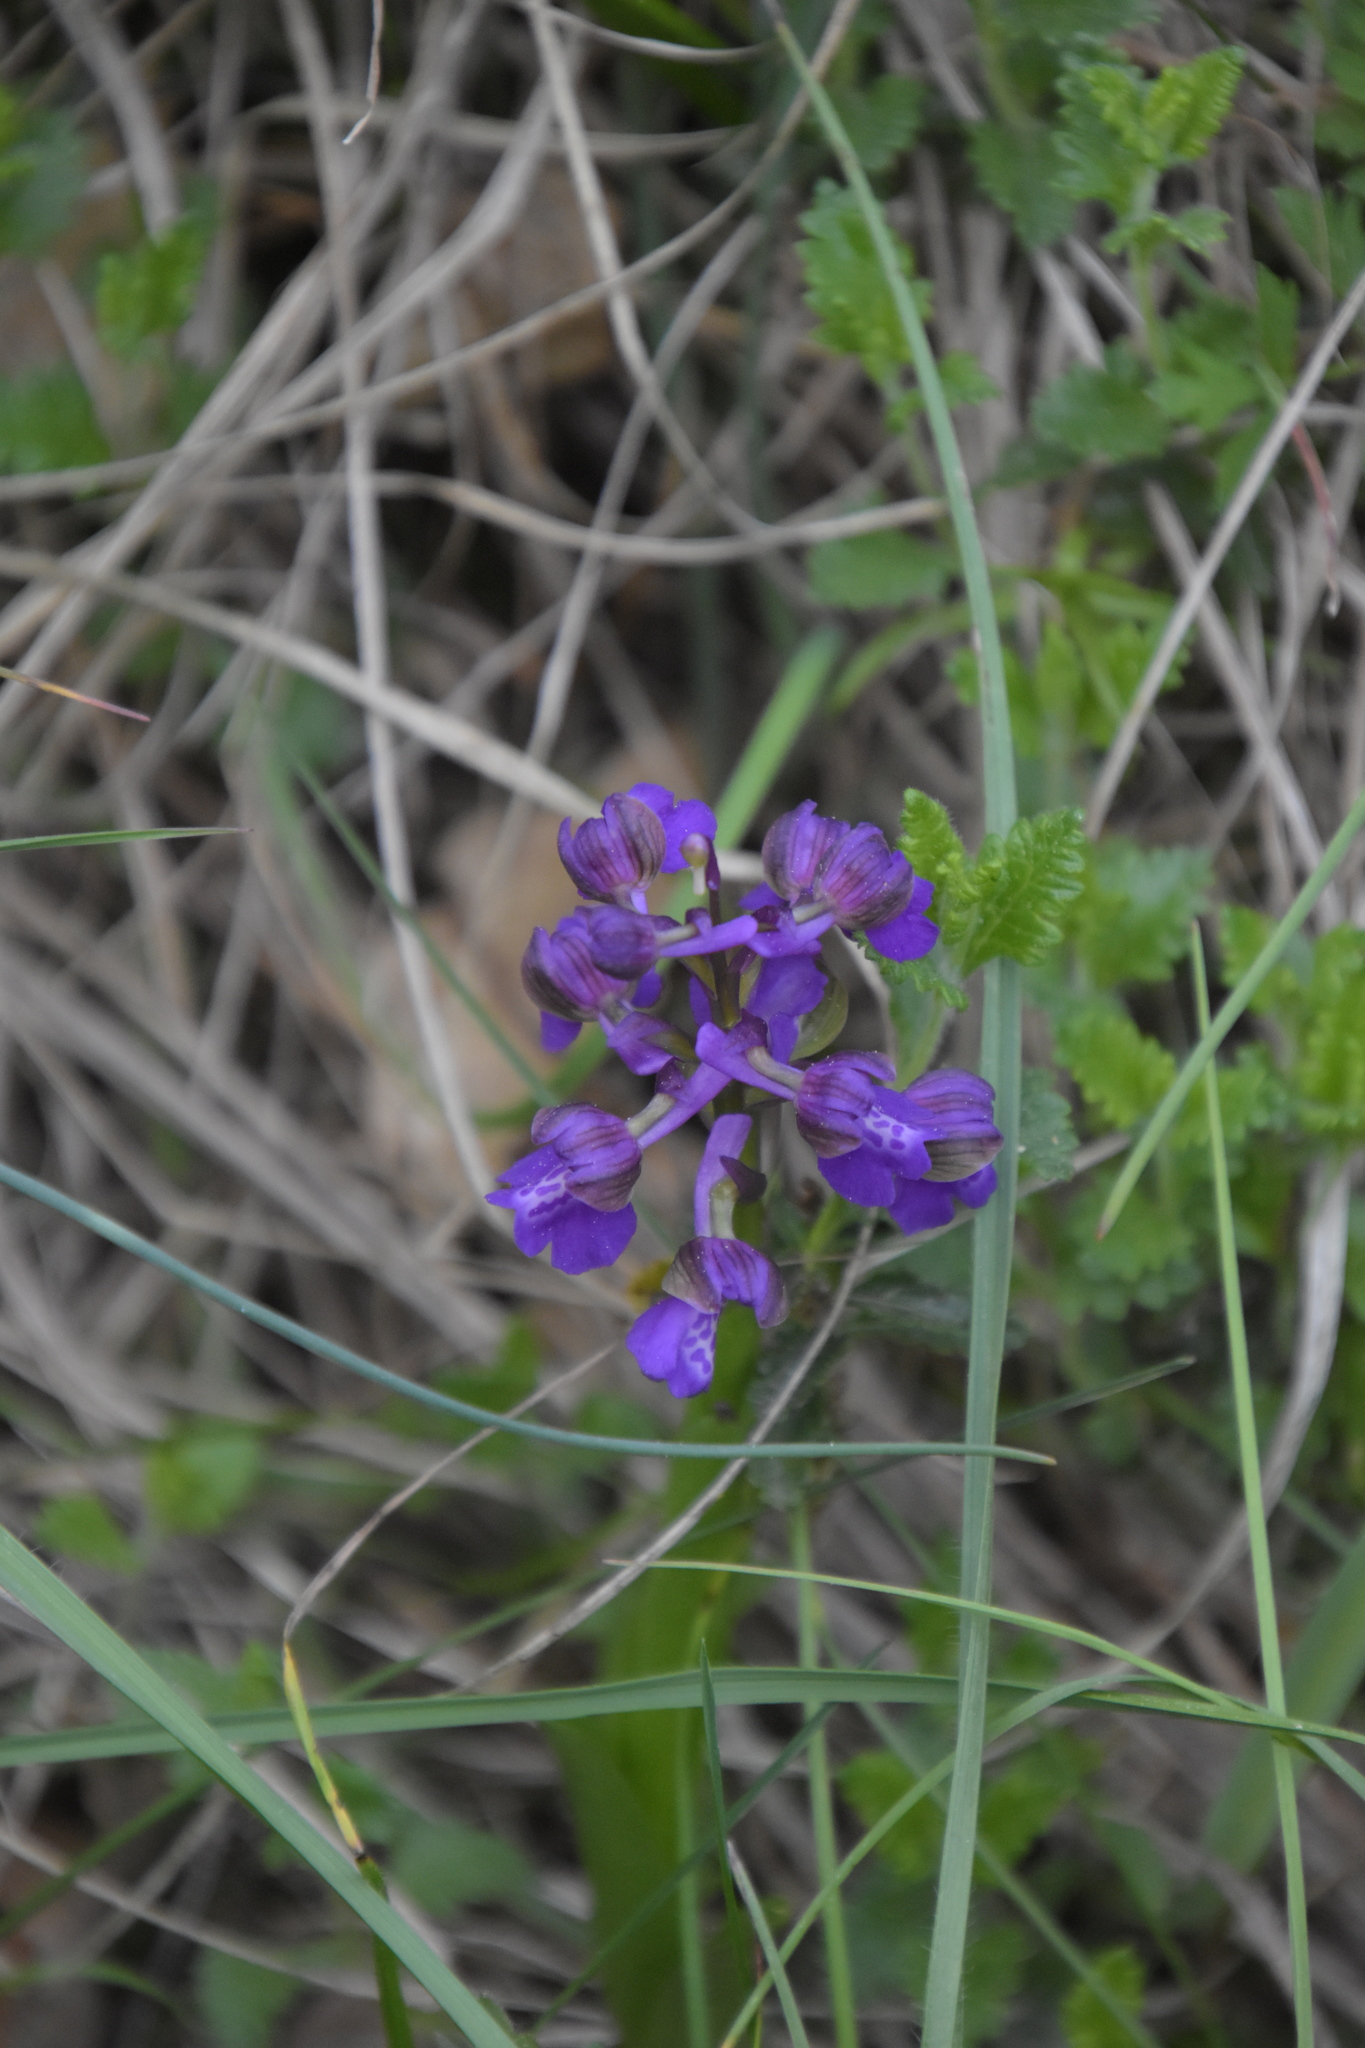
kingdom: Plantae
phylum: Tracheophyta
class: Liliopsida
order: Asparagales
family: Orchidaceae
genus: Anacamptis
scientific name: Anacamptis morio
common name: Green-winged orchid
